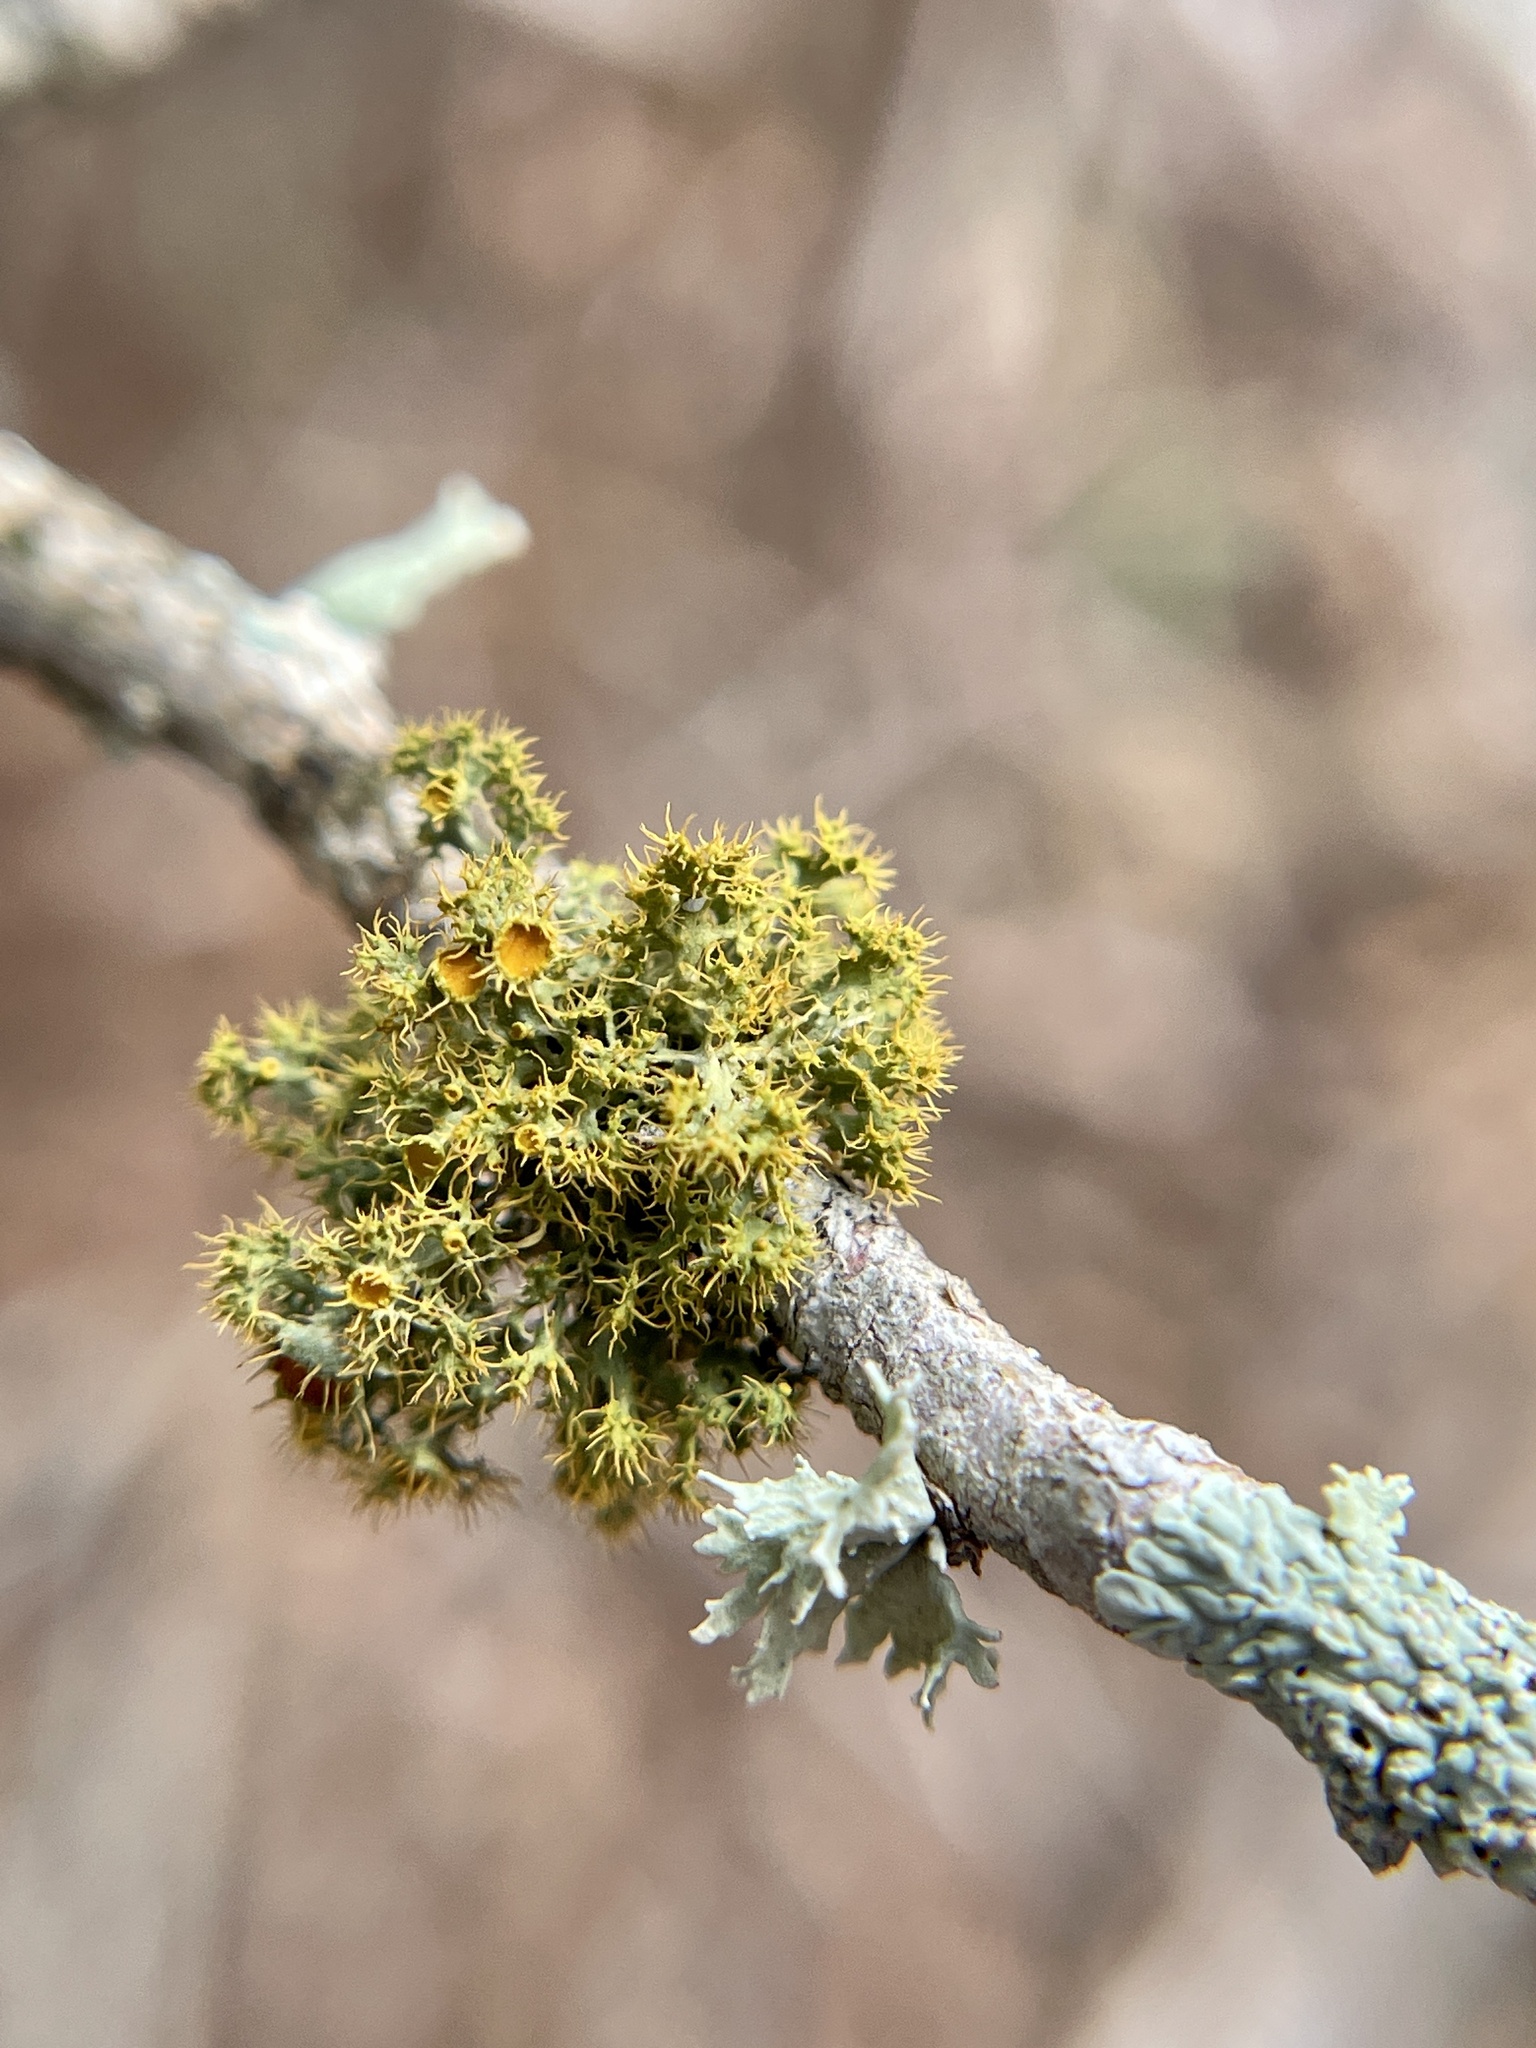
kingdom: Fungi
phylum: Ascomycota
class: Lecanoromycetes
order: Teloschistales
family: Teloschistaceae
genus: Niorma
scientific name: Niorma chrysophthalma
